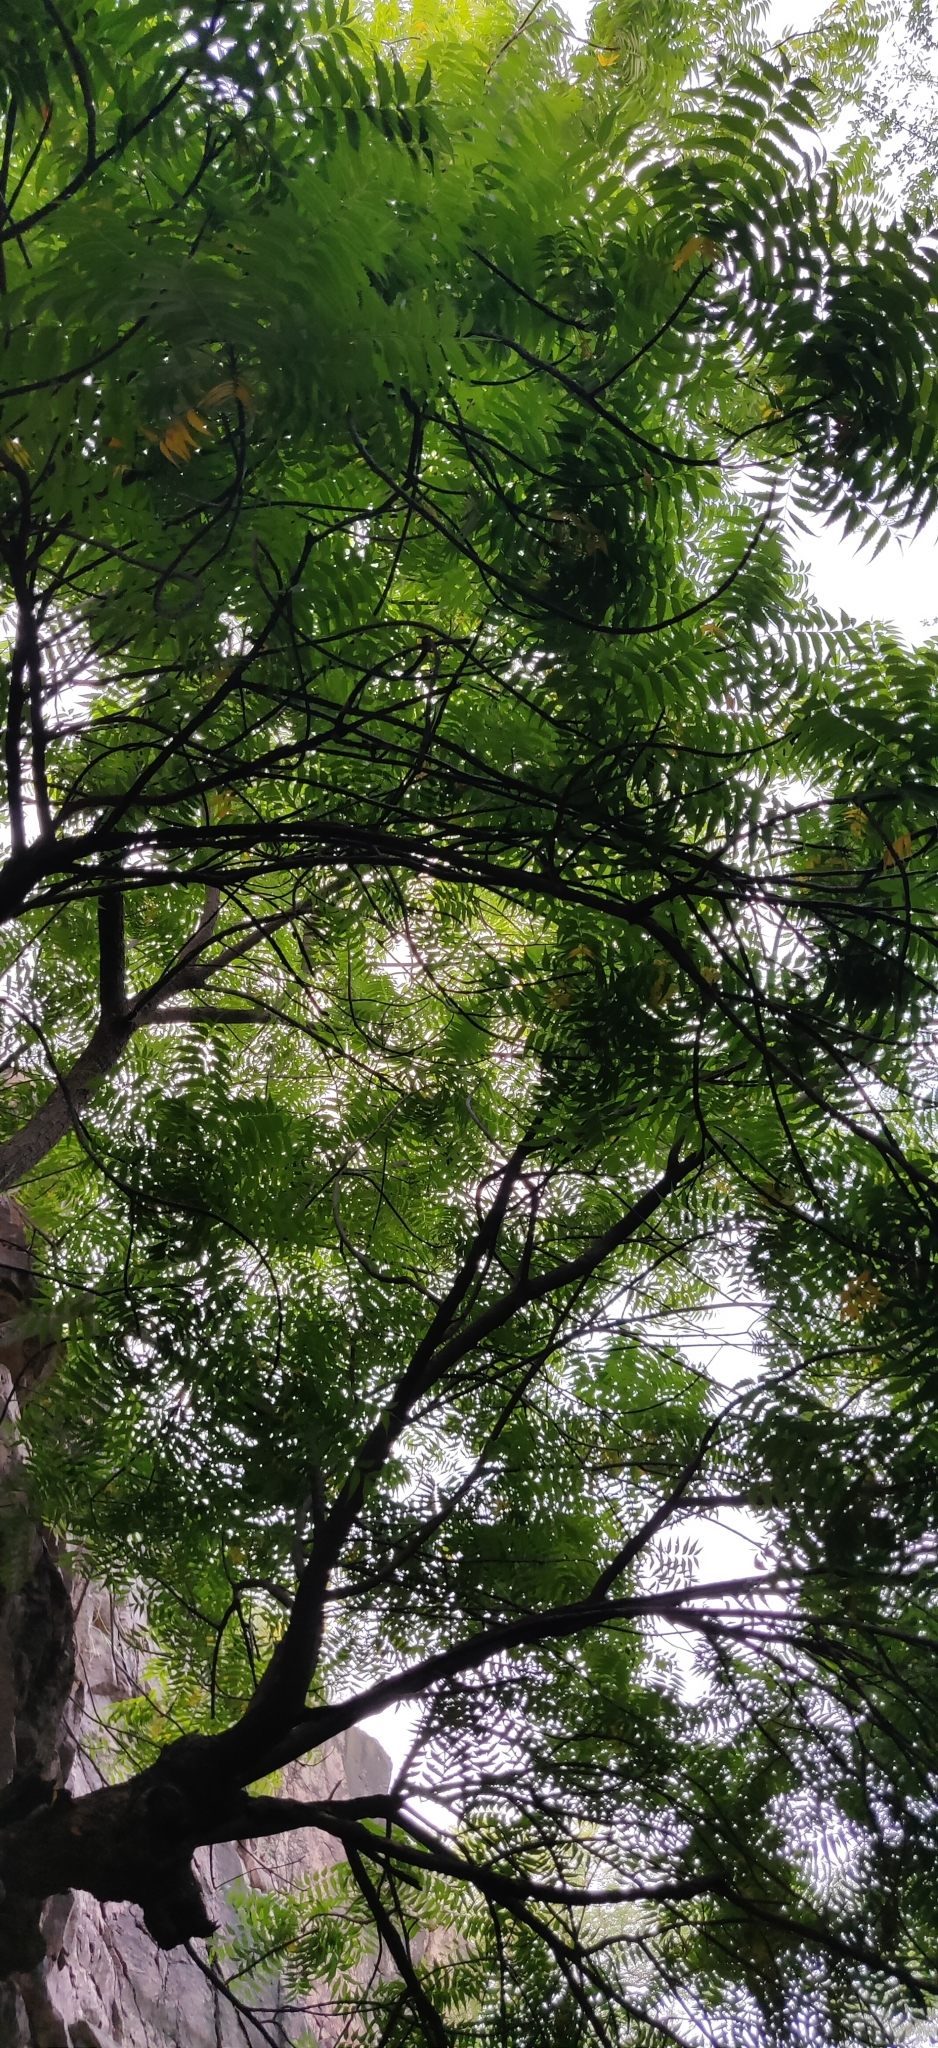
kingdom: Plantae
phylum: Tracheophyta
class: Magnoliopsida
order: Sapindales
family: Meliaceae
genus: Azadirachta
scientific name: Azadirachta indica
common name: Neem
